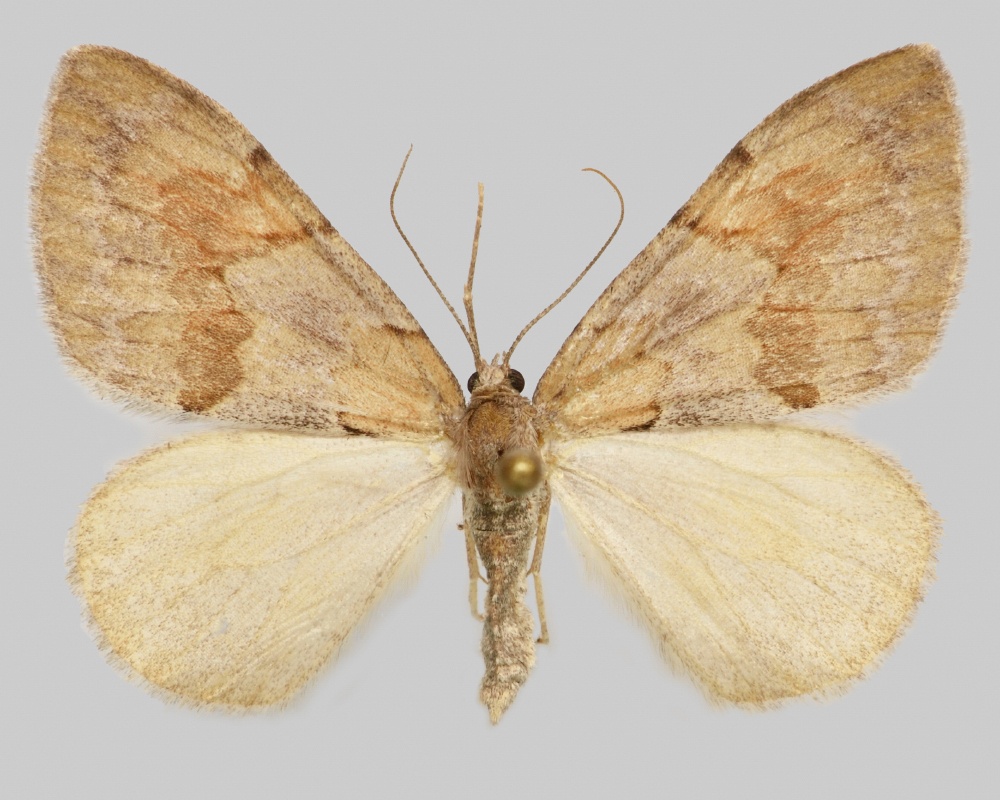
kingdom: Animalia
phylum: Arthropoda
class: Insecta
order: Lepidoptera
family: Geometridae
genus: Pennithera
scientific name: Pennithera firmata
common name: Pine carpet
